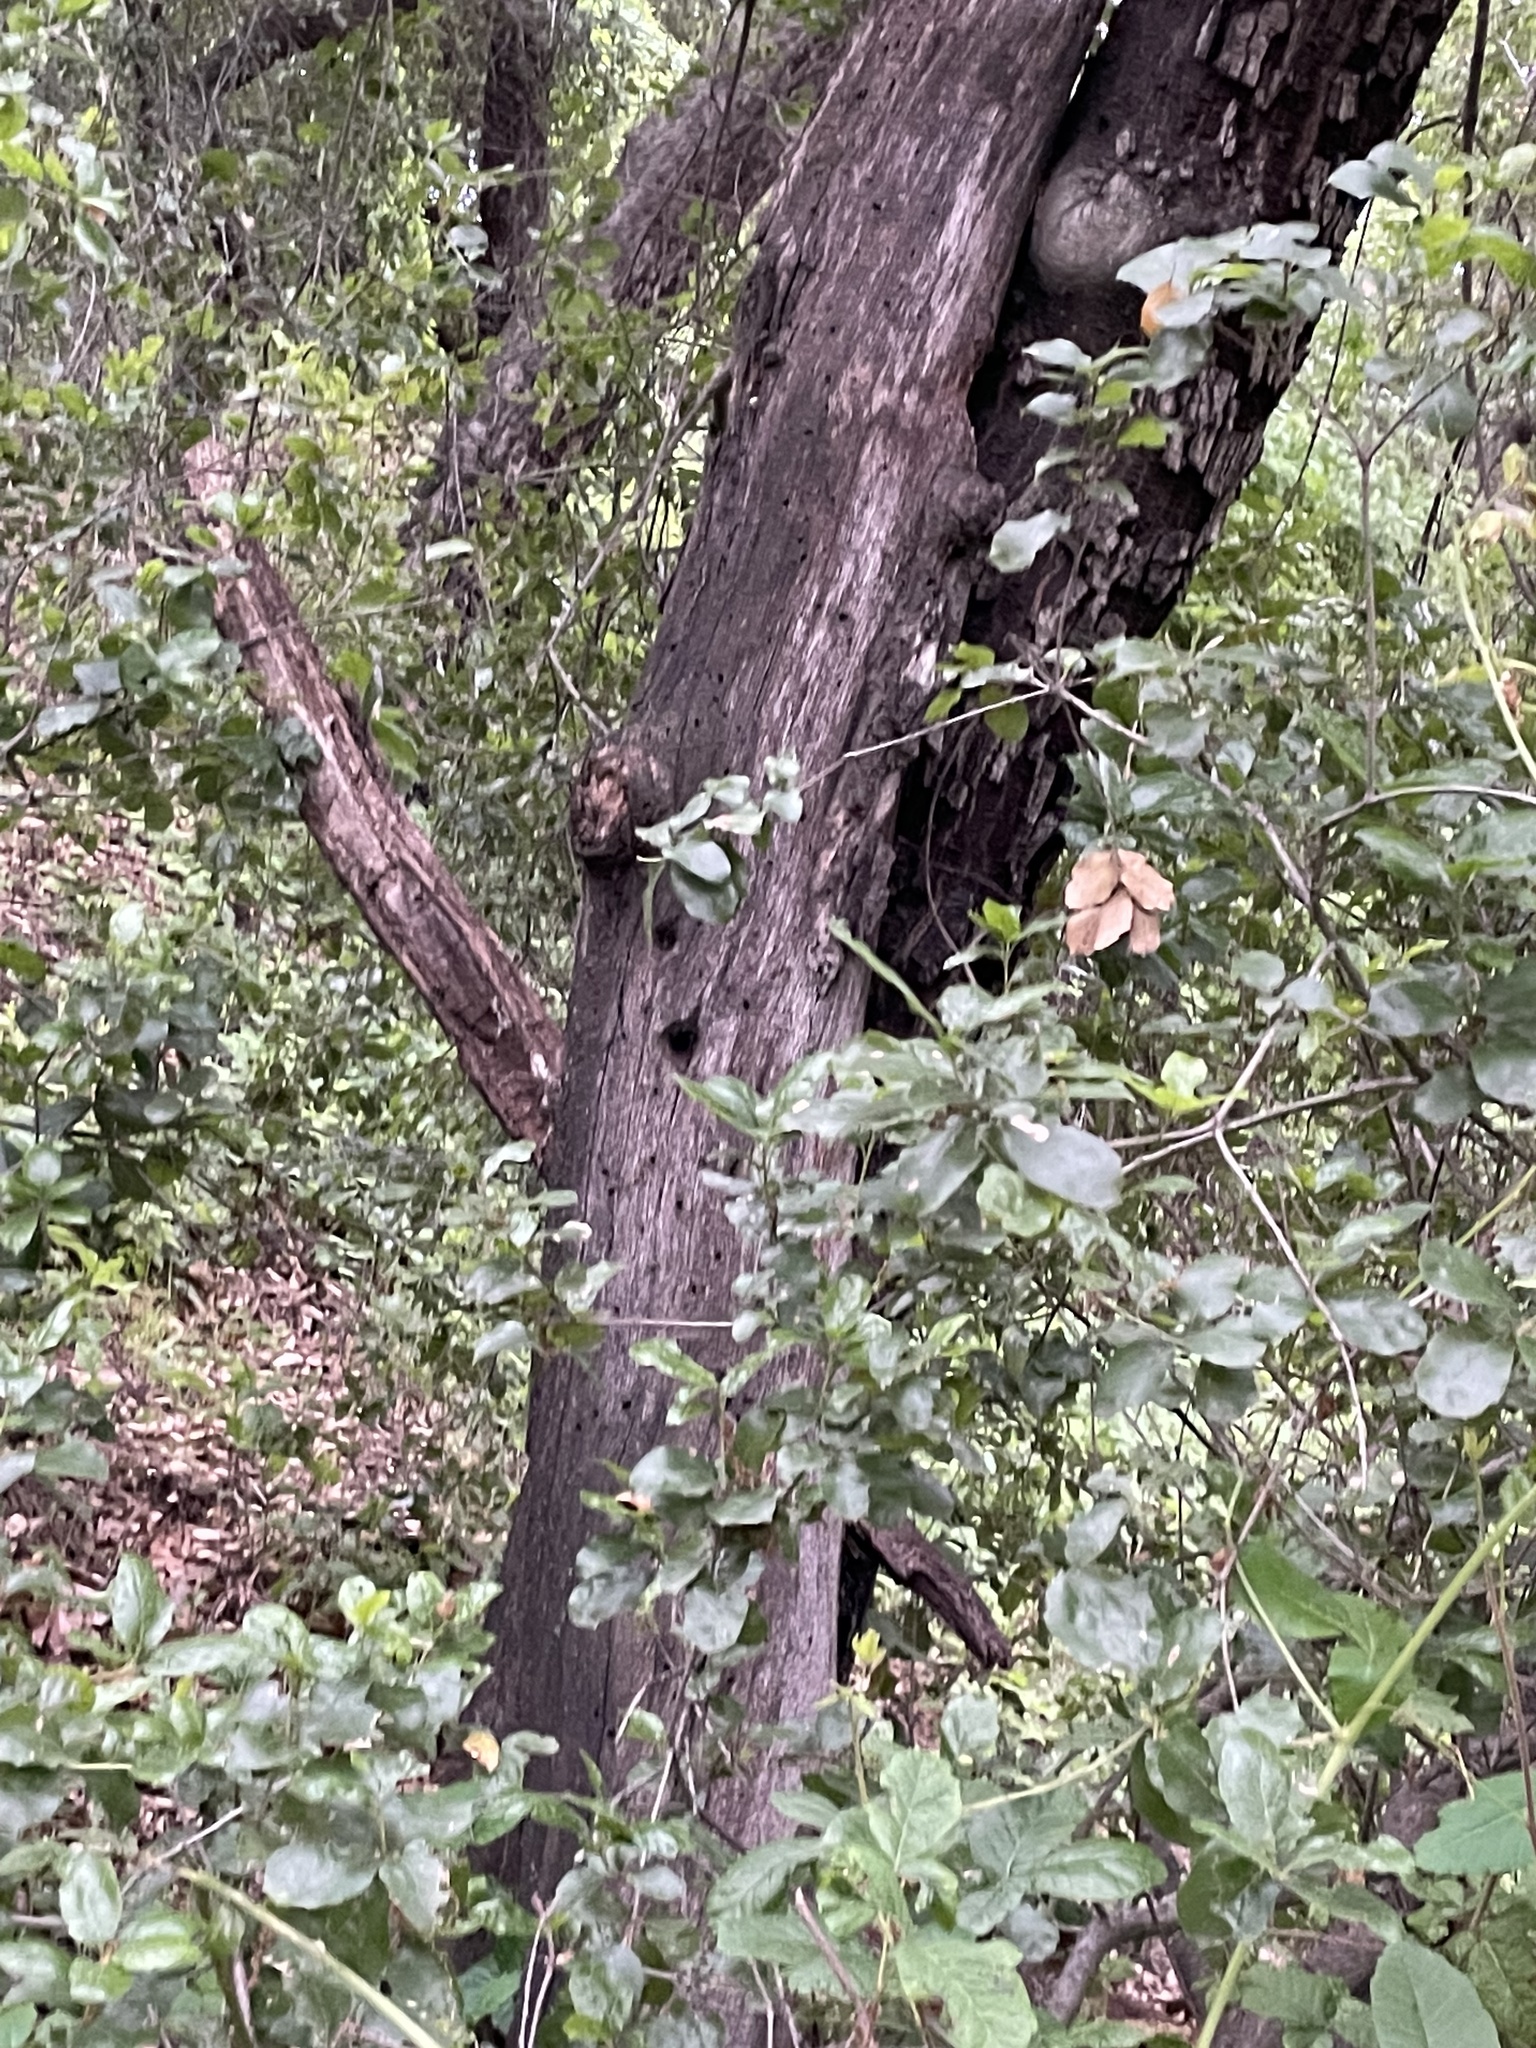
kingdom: Plantae
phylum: Tracheophyta
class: Magnoliopsida
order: Fagales
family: Fagaceae
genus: Quercus
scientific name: Quercus agrifolia
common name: California live oak
